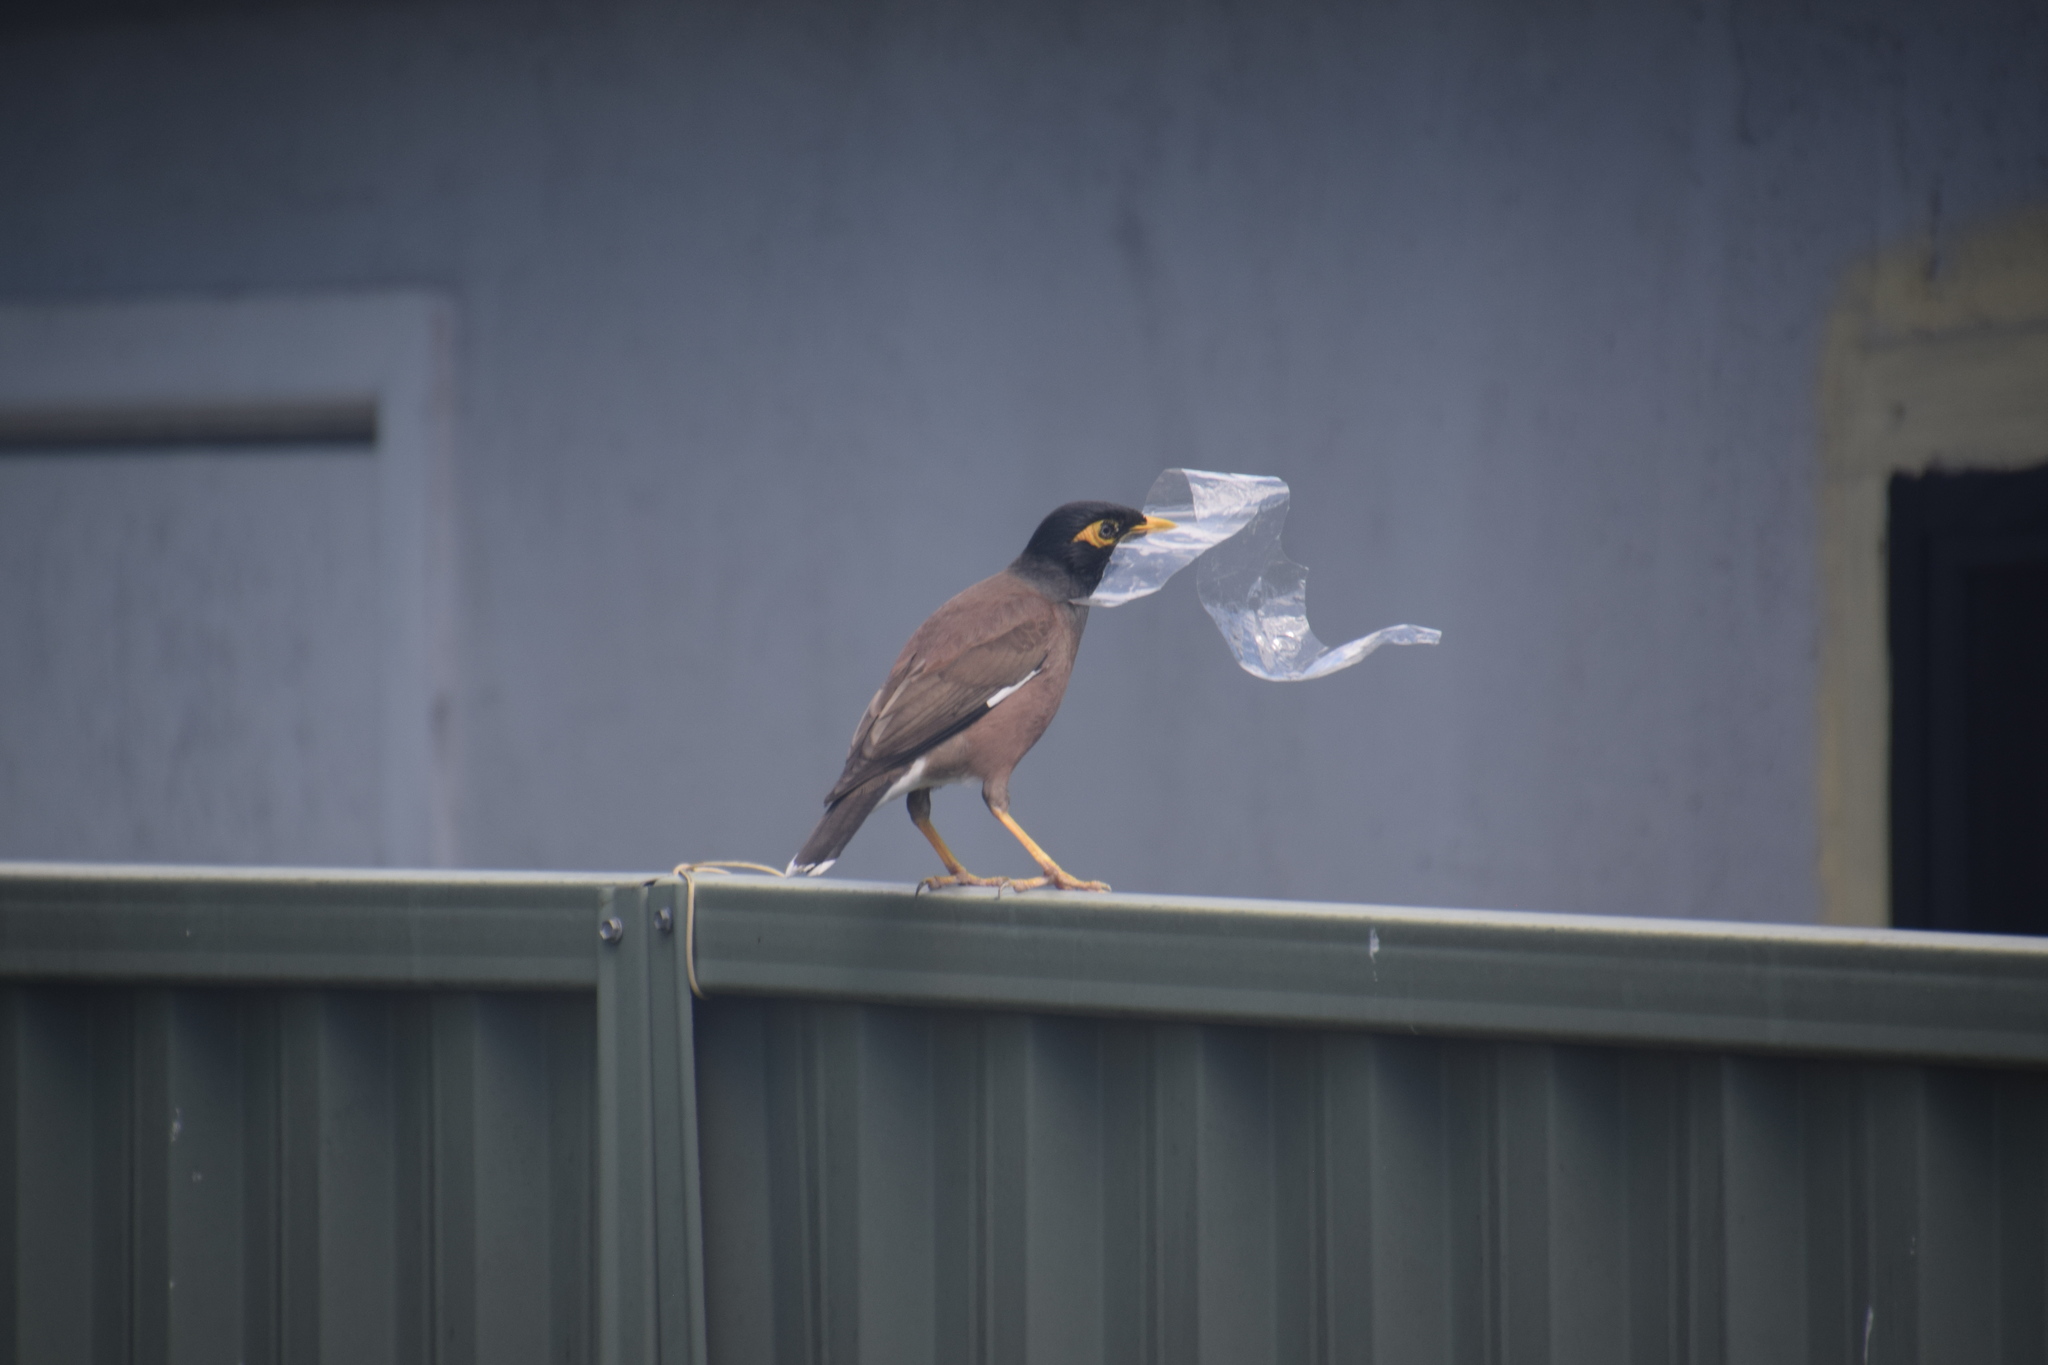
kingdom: Animalia
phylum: Chordata
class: Aves
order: Passeriformes
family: Sturnidae
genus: Acridotheres
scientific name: Acridotheres tristis
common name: Common myna
